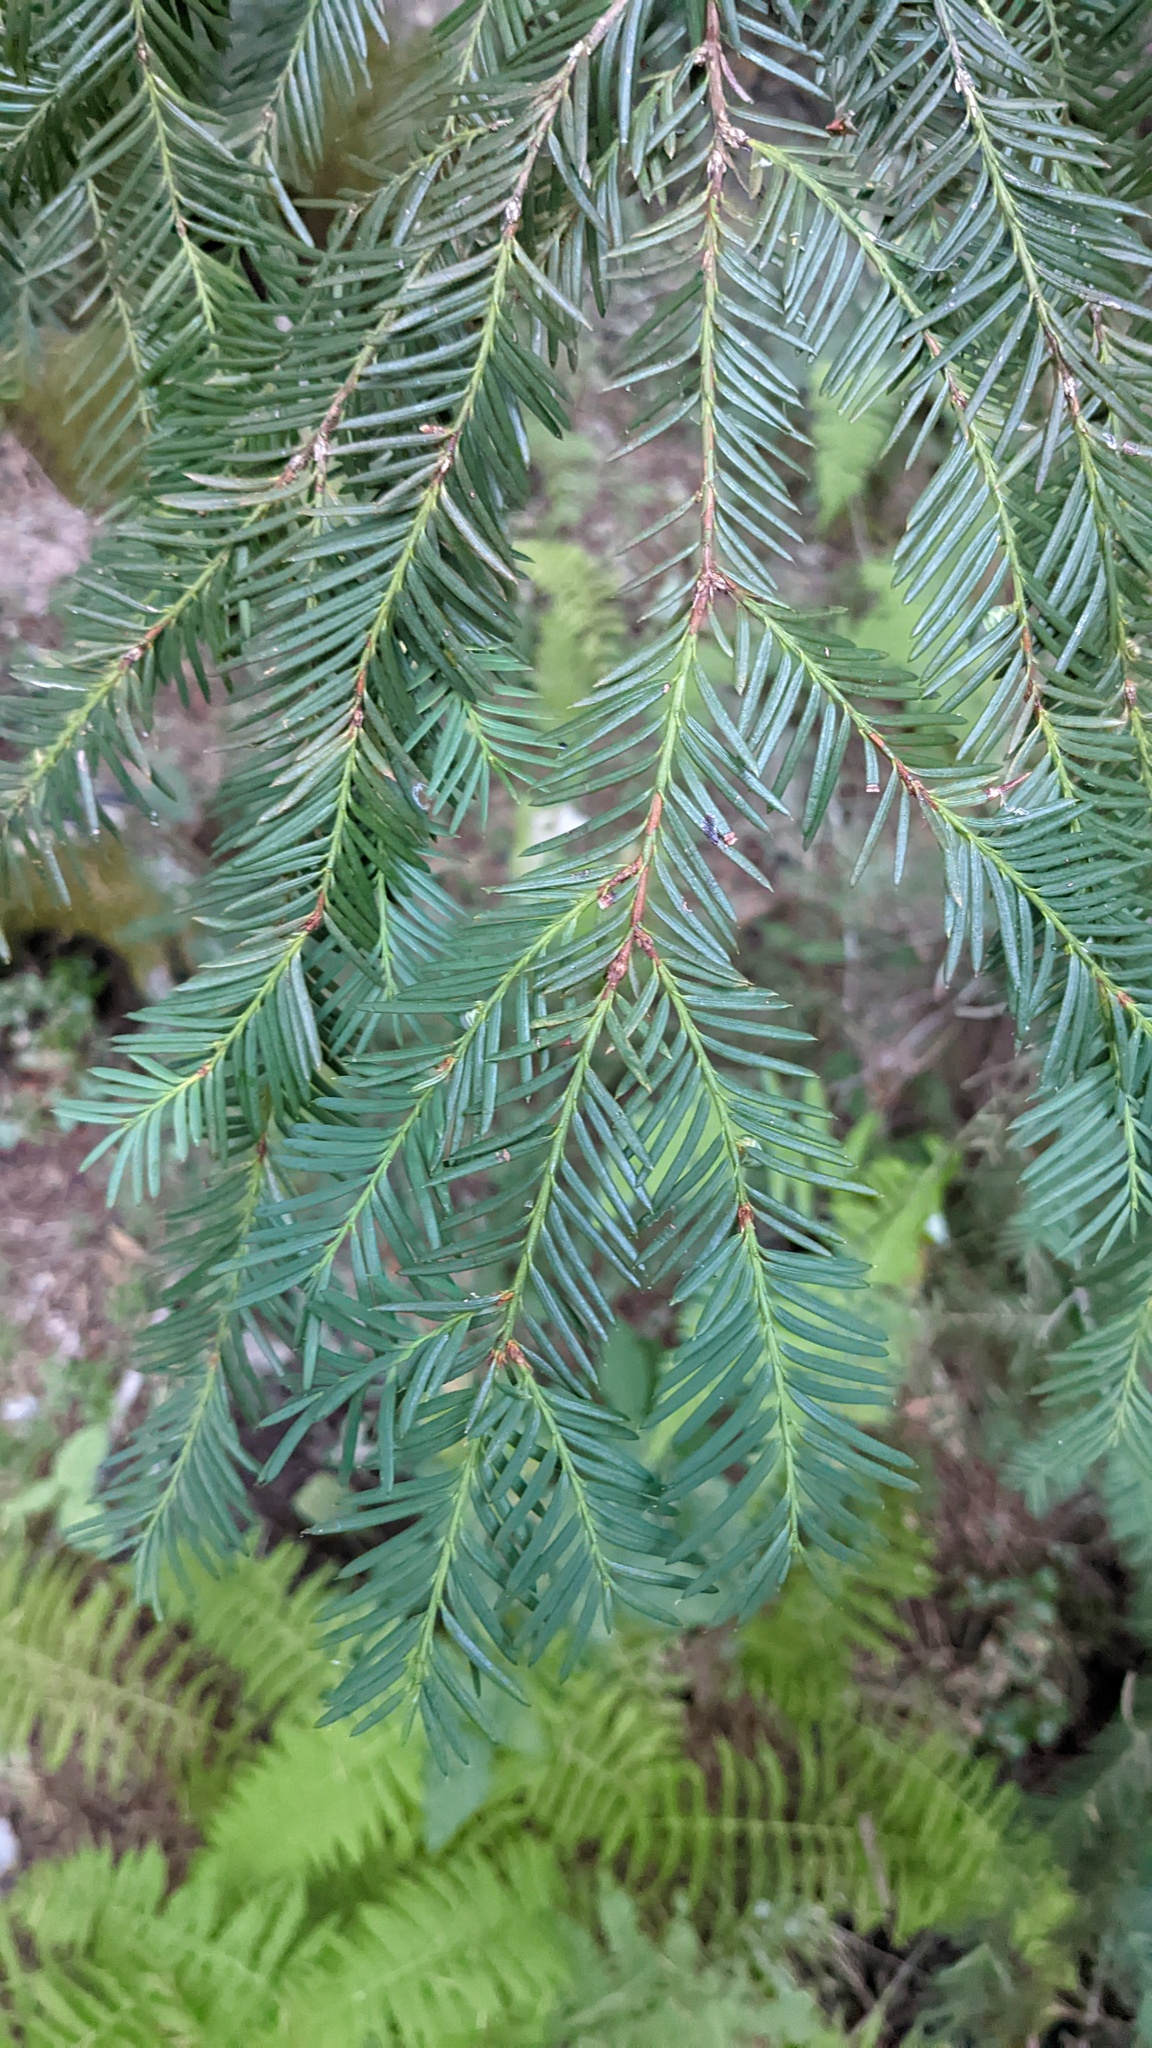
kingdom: Plantae
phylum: Tracheophyta
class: Pinopsida
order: Pinales
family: Taxaceae
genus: Taxus
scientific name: Taxus brevifolia
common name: Pacific yew
